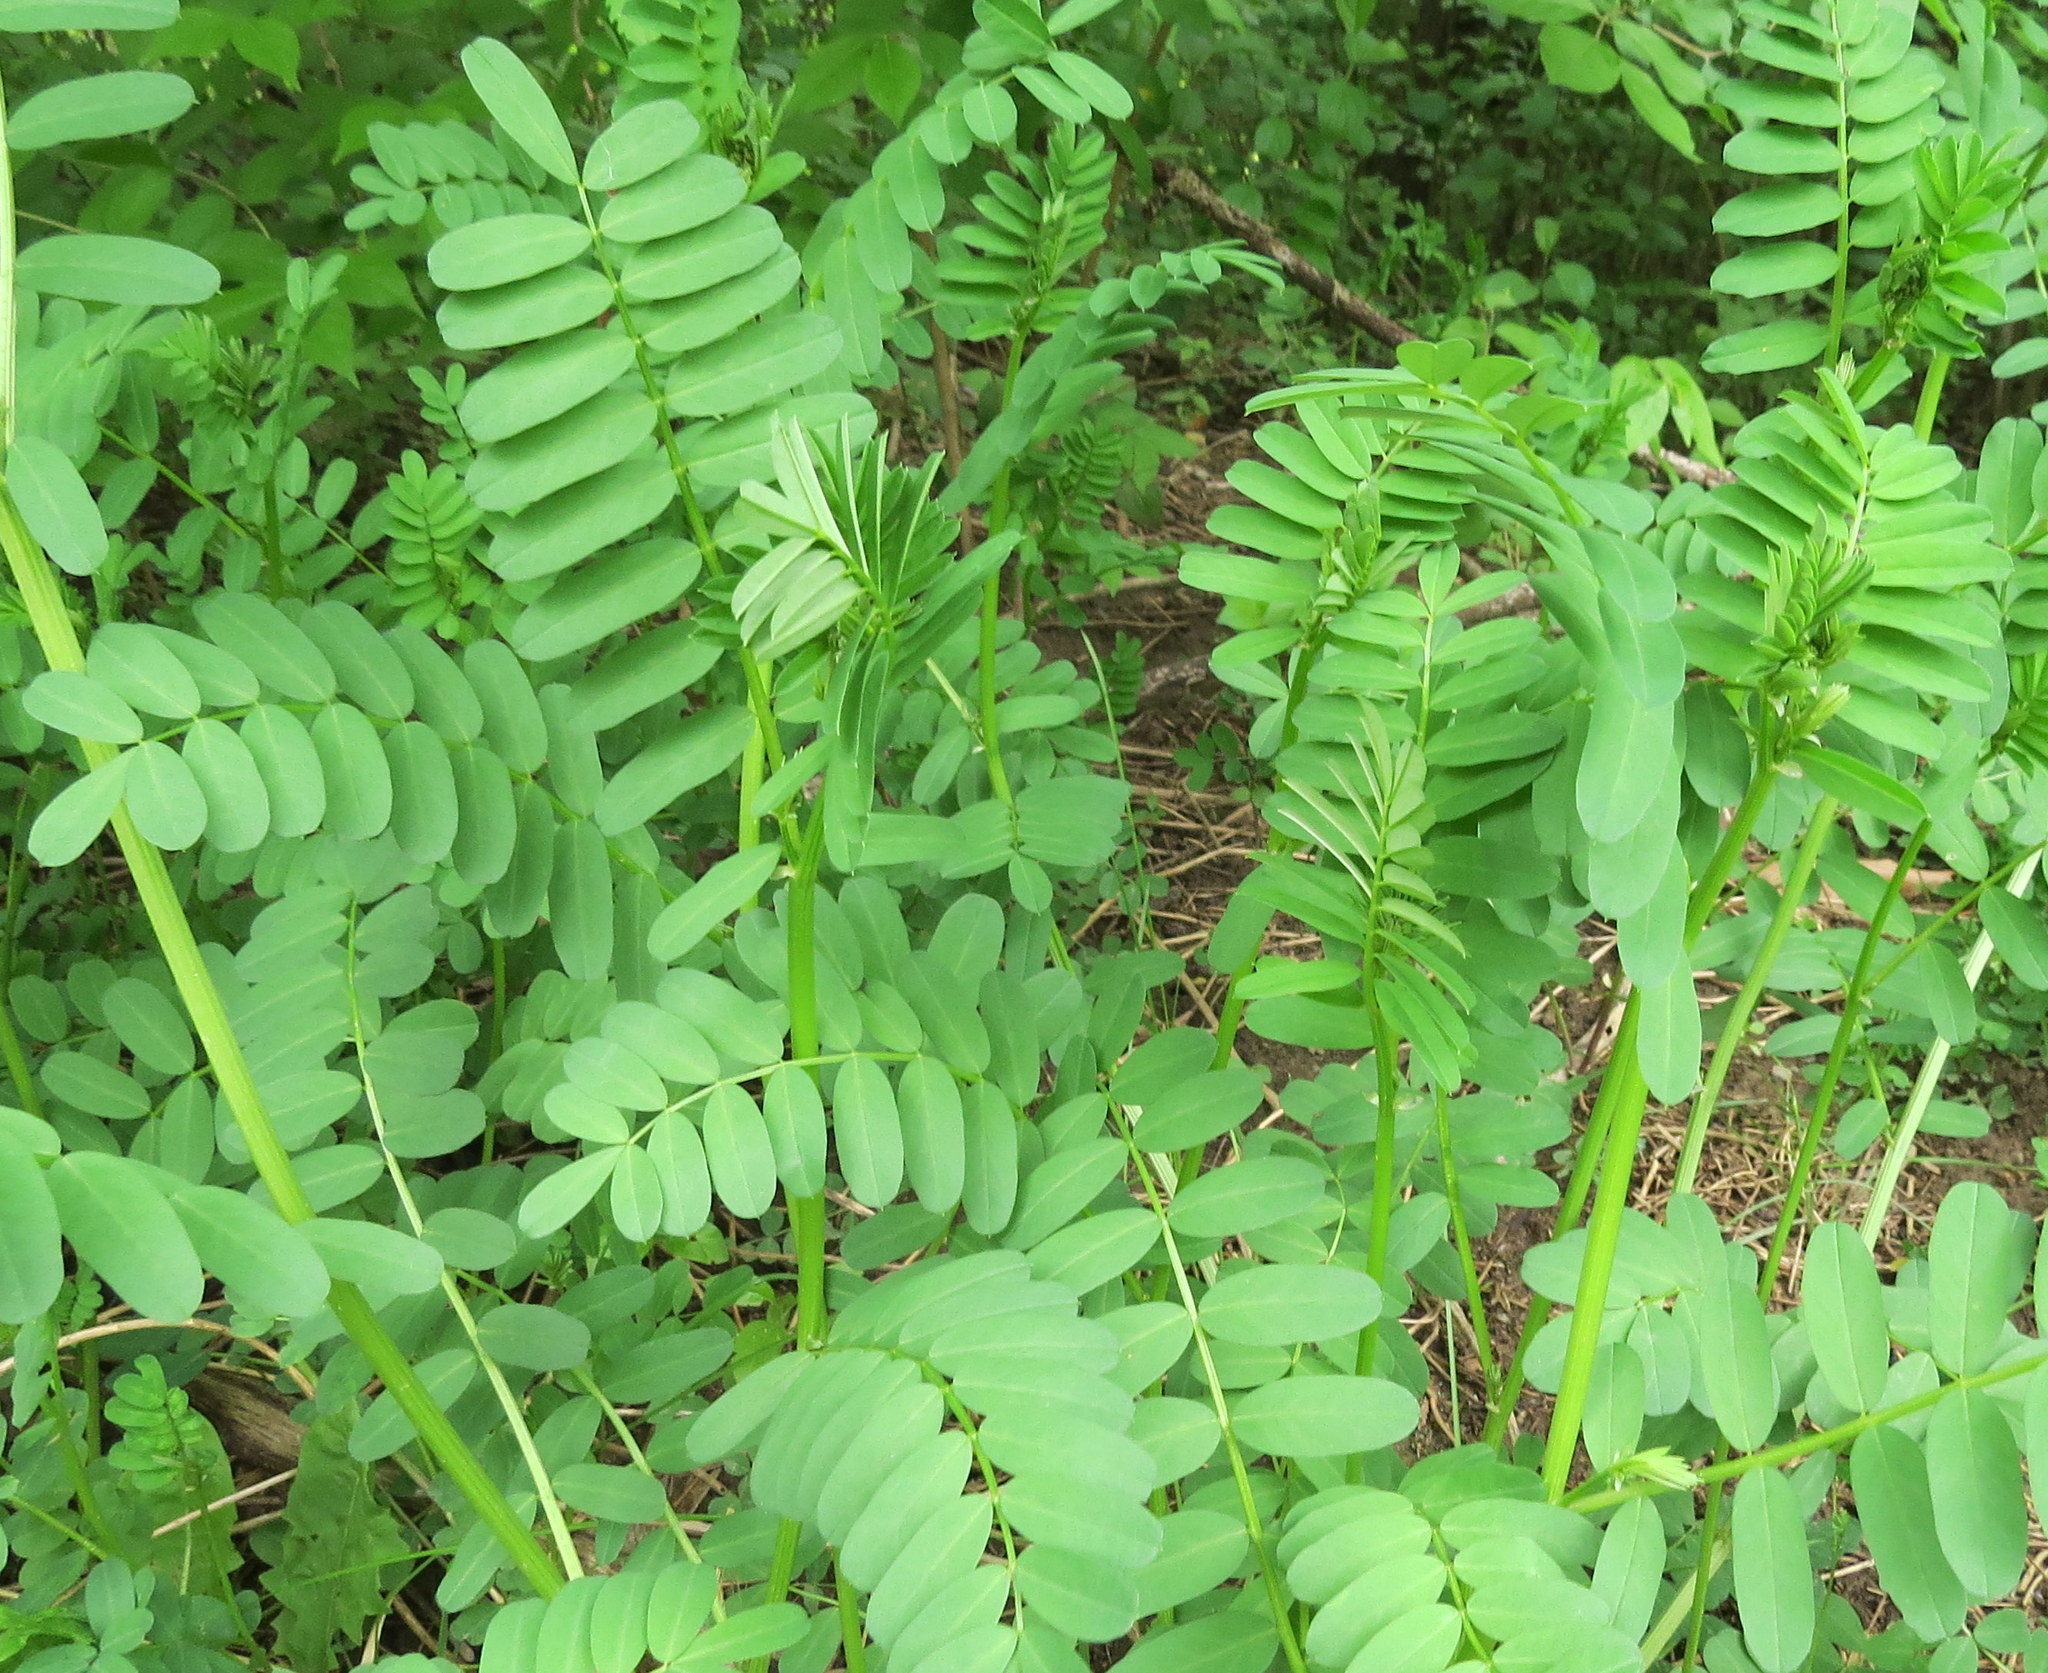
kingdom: Plantae
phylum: Tracheophyta
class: Magnoliopsida
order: Fabales
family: Fabaceae
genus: Coronilla
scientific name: Coronilla varia
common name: Crownvetch
